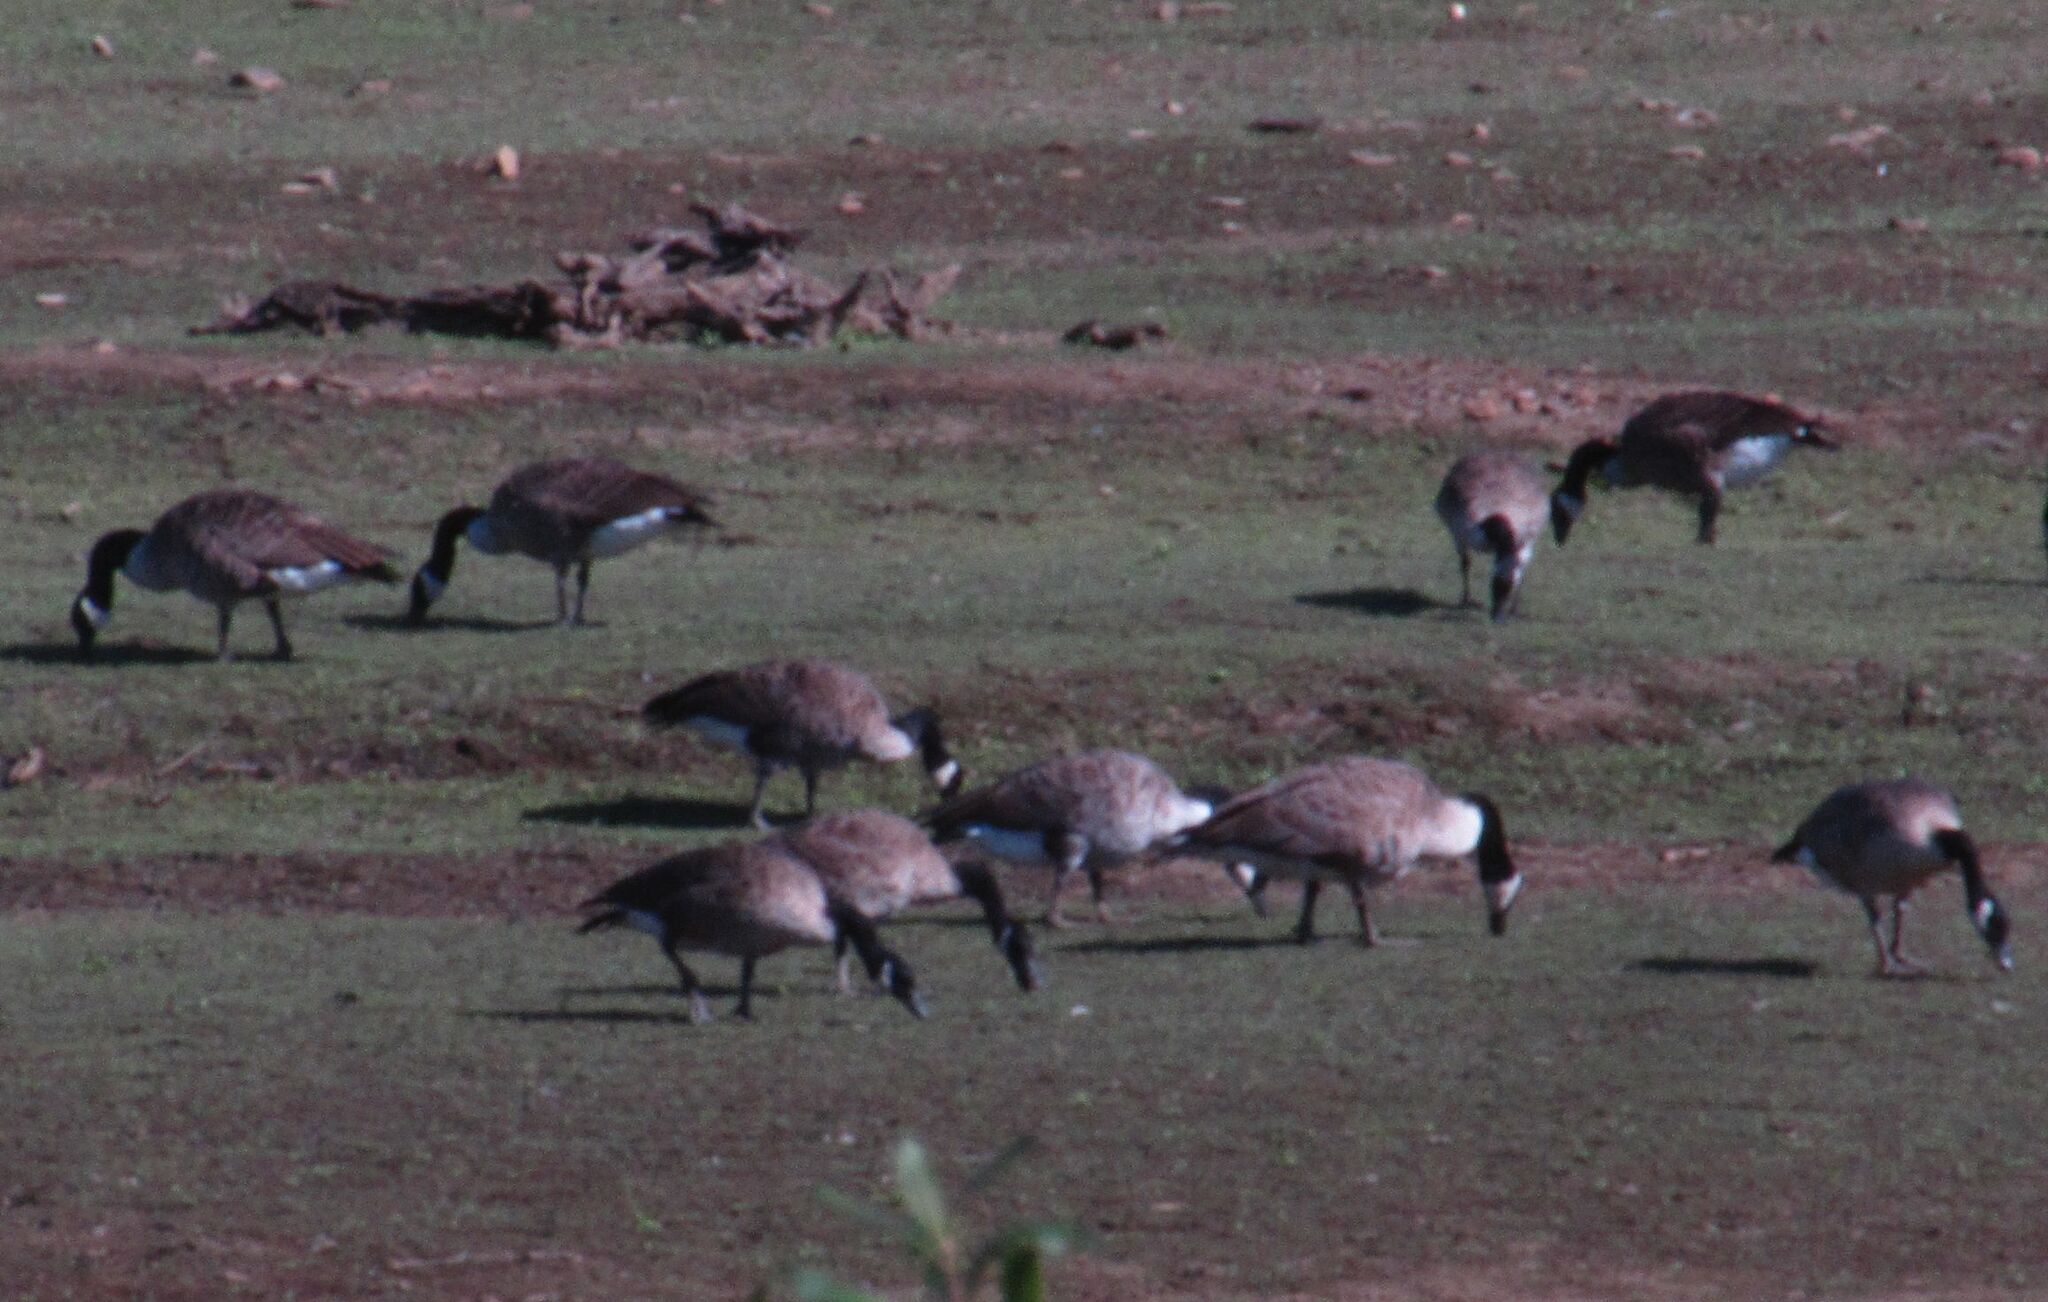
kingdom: Animalia
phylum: Chordata
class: Aves
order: Anseriformes
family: Anatidae
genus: Branta
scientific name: Branta canadensis
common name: Canada goose
